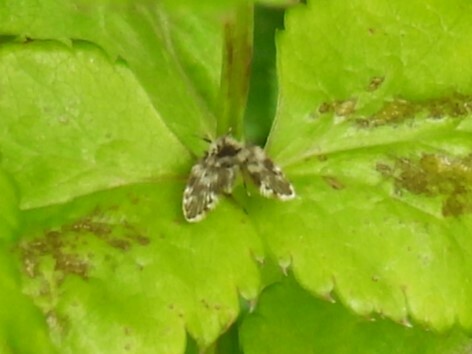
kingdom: Animalia
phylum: Arthropoda
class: Insecta
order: Diptera
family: Psychodidae
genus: Lepiseodina
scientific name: Lepiseodina rotschildi
